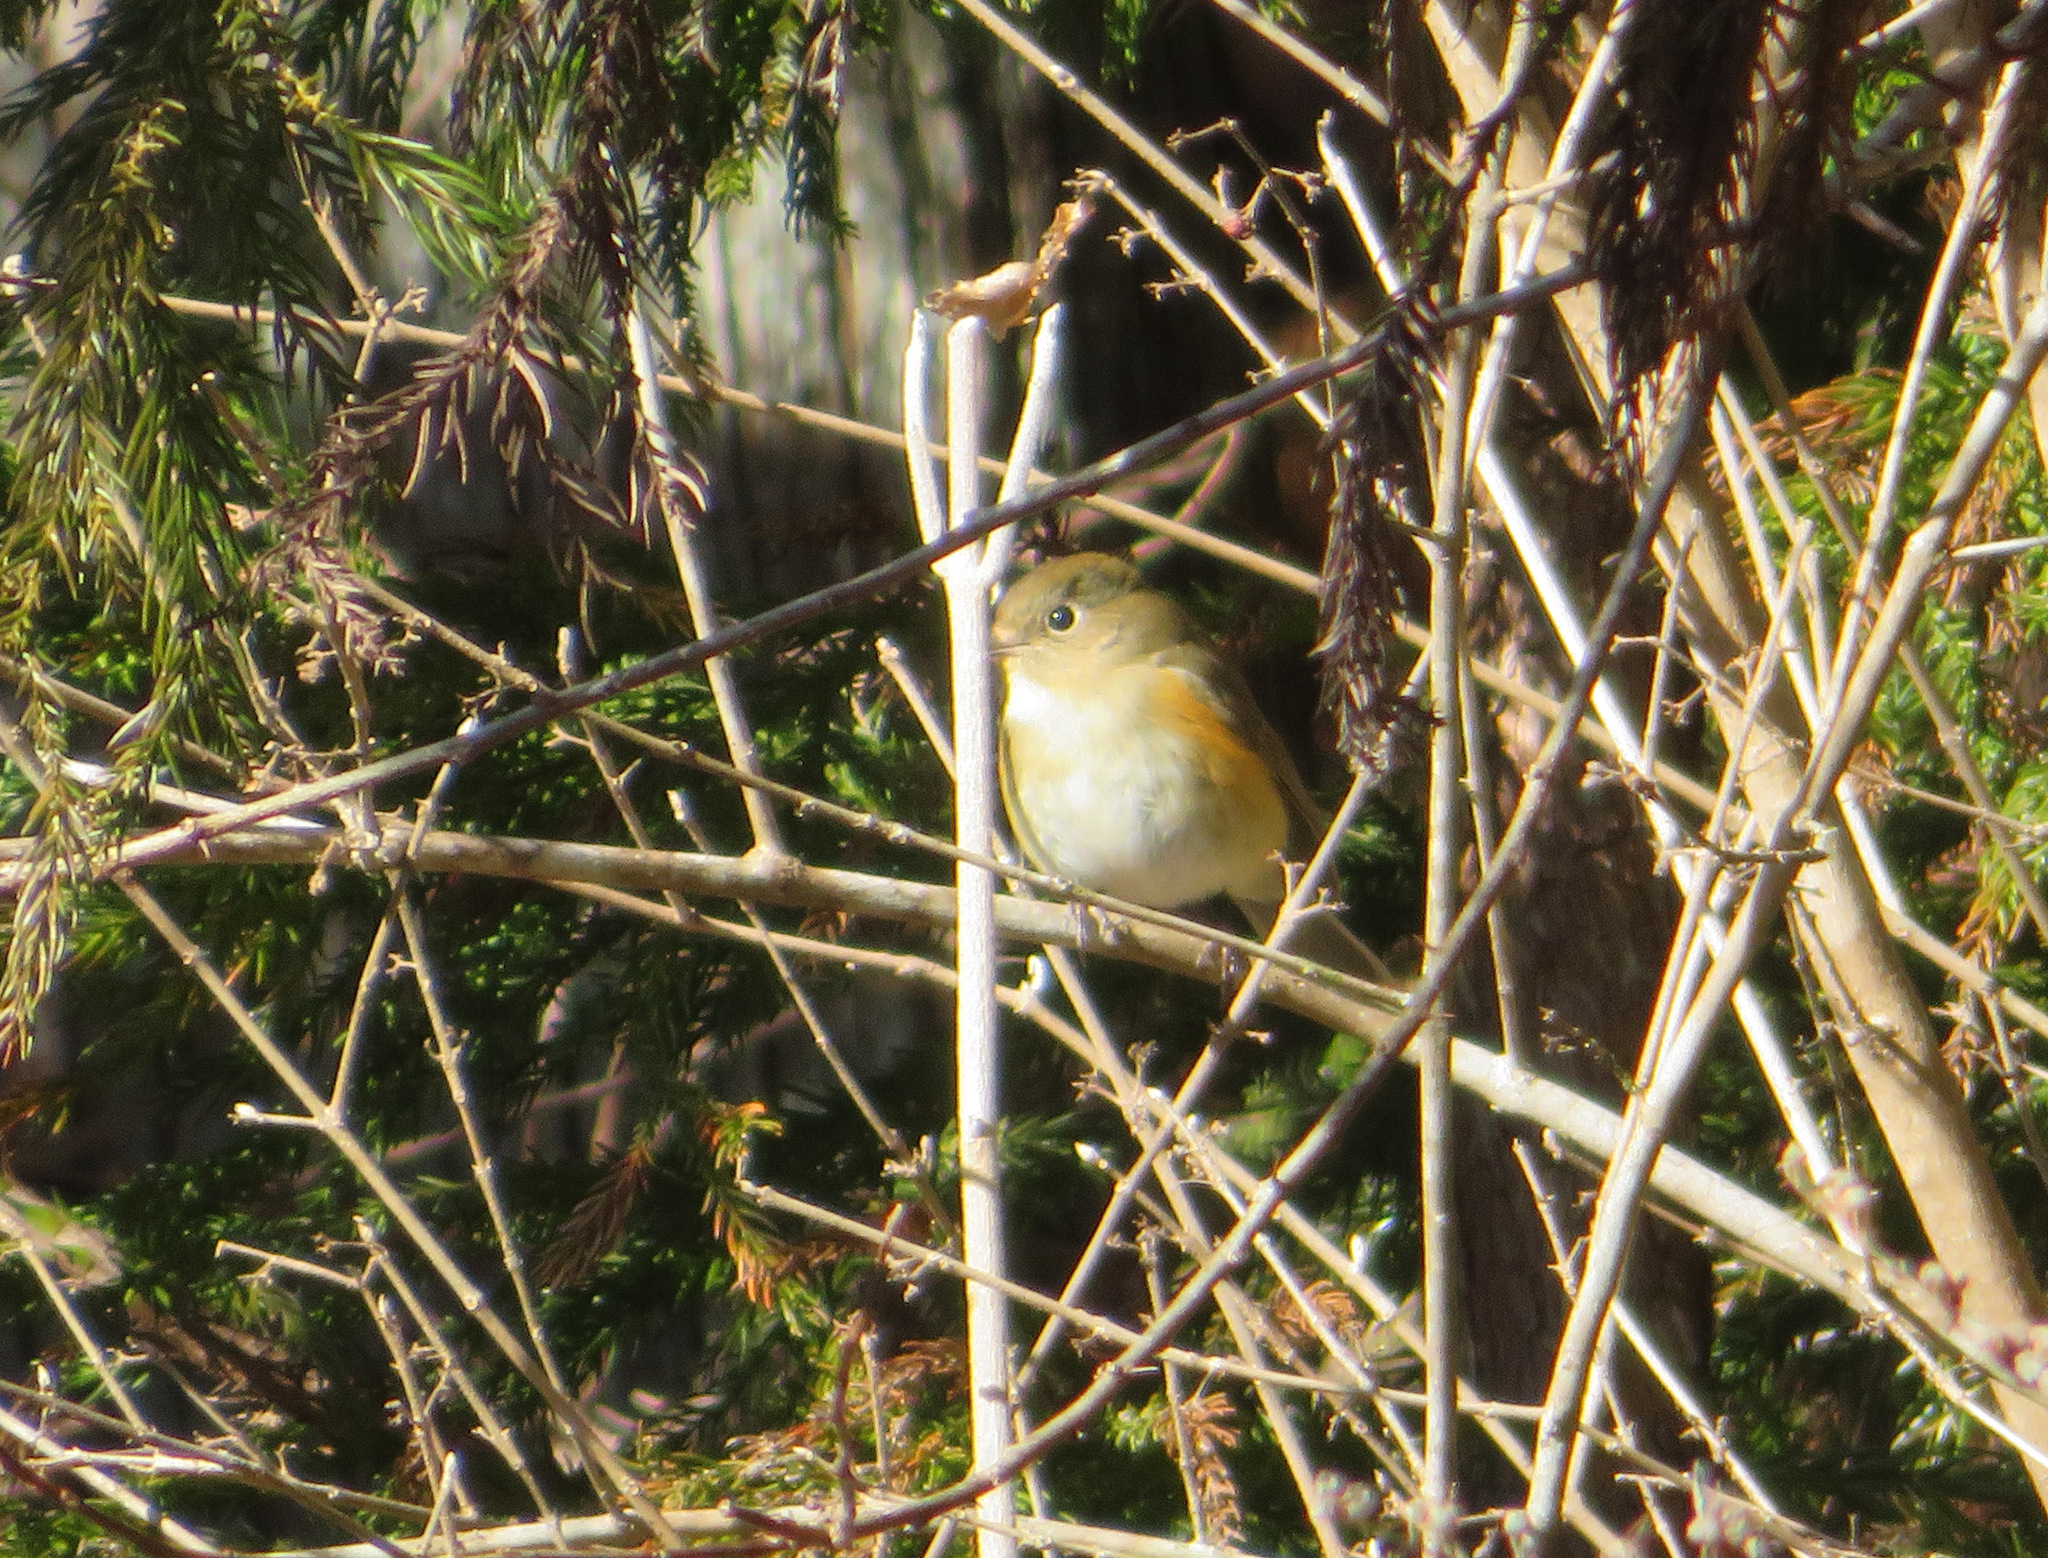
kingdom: Animalia
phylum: Chordata
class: Aves
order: Passeriformes
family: Muscicapidae
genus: Tarsiger
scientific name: Tarsiger cyanurus
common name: Red-flanked bluetail
